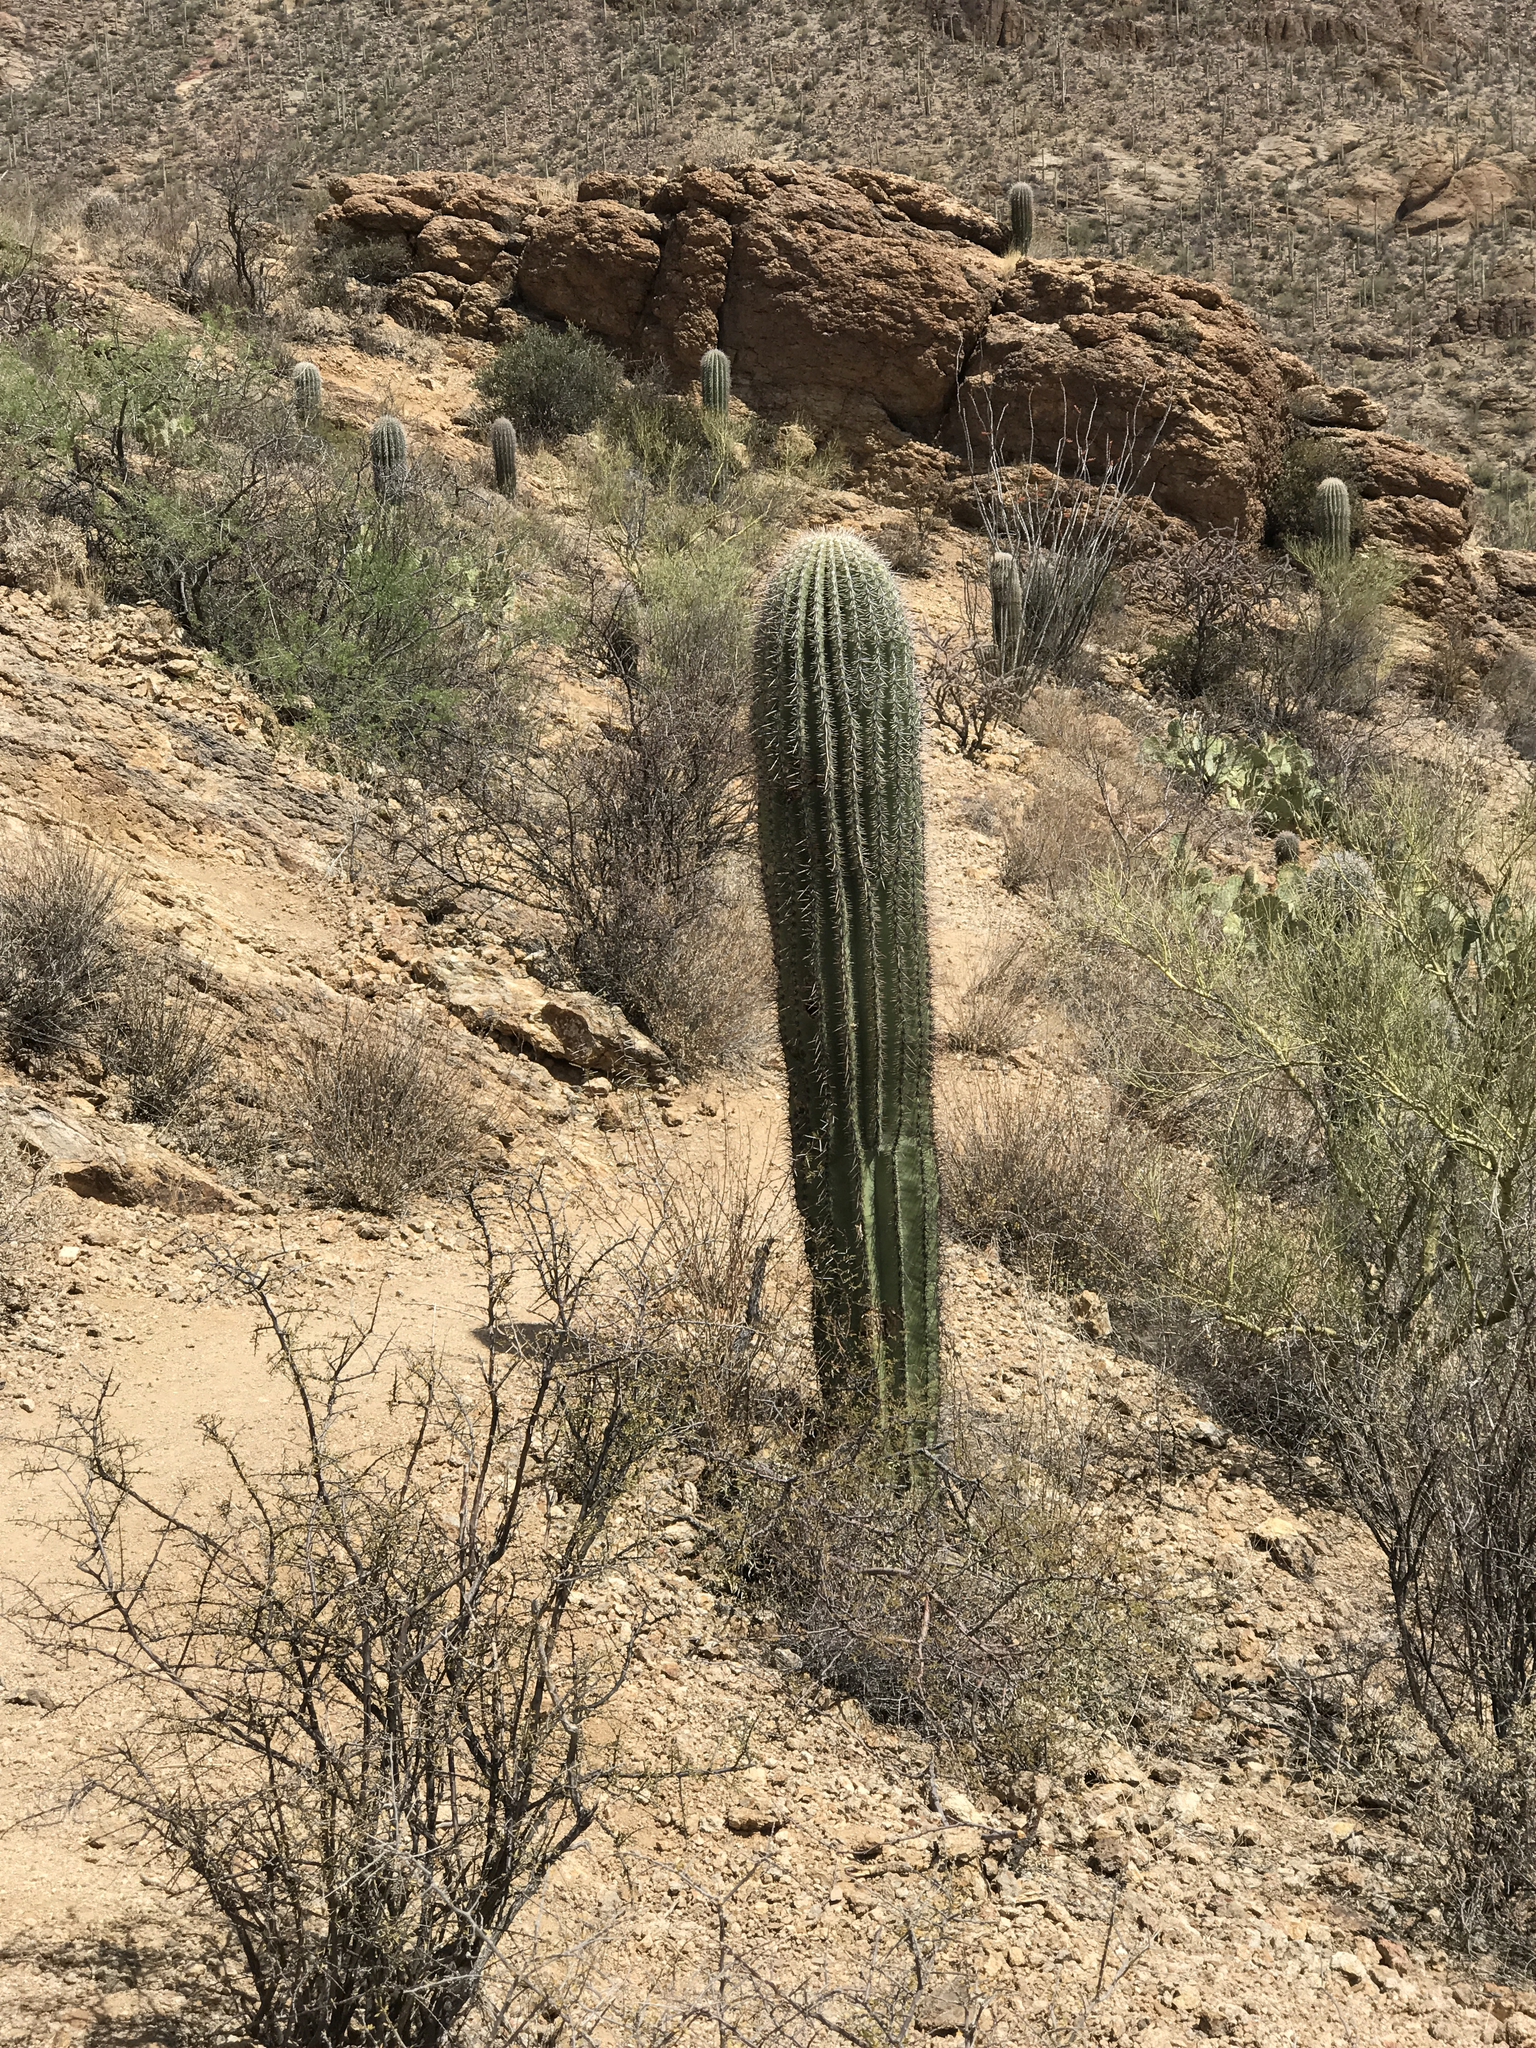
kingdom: Plantae
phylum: Tracheophyta
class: Magnoliopsida
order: Caryophyllales
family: Cactaceae
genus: Carnegiea
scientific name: Carnegiea gigantea
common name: Saguaro
